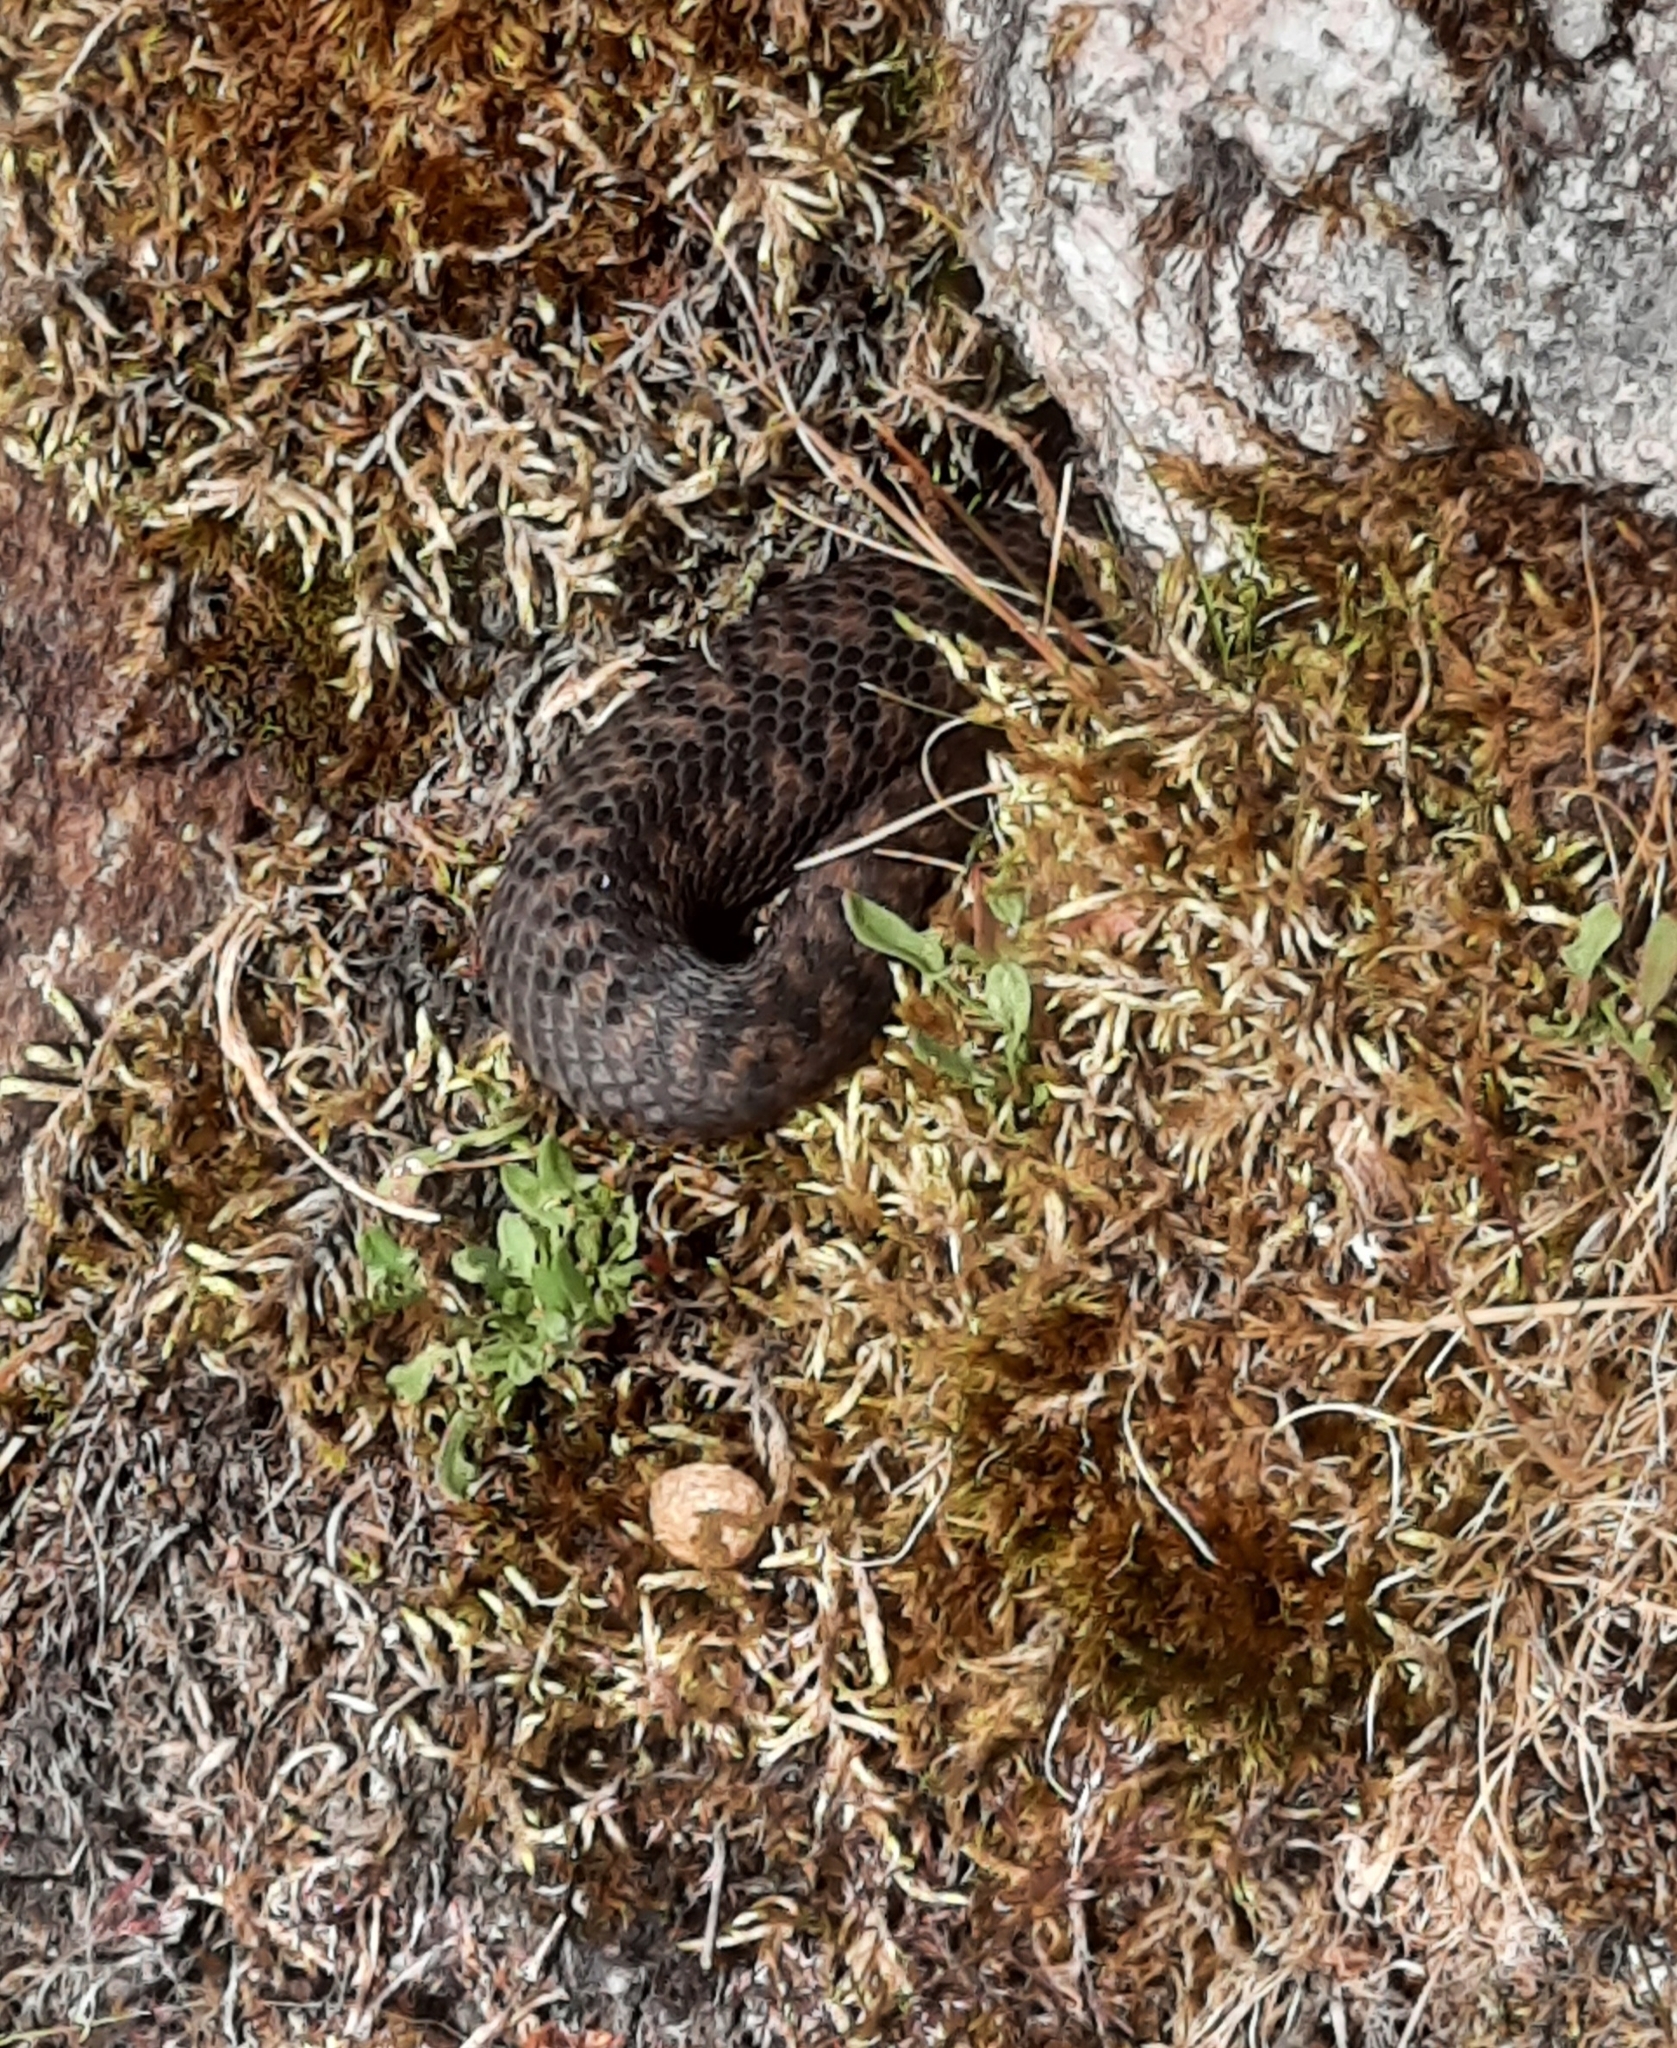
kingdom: Animalia
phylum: Chordata
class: Squamata
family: Viperidae
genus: Vipera
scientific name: Vipera berus
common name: Adder
